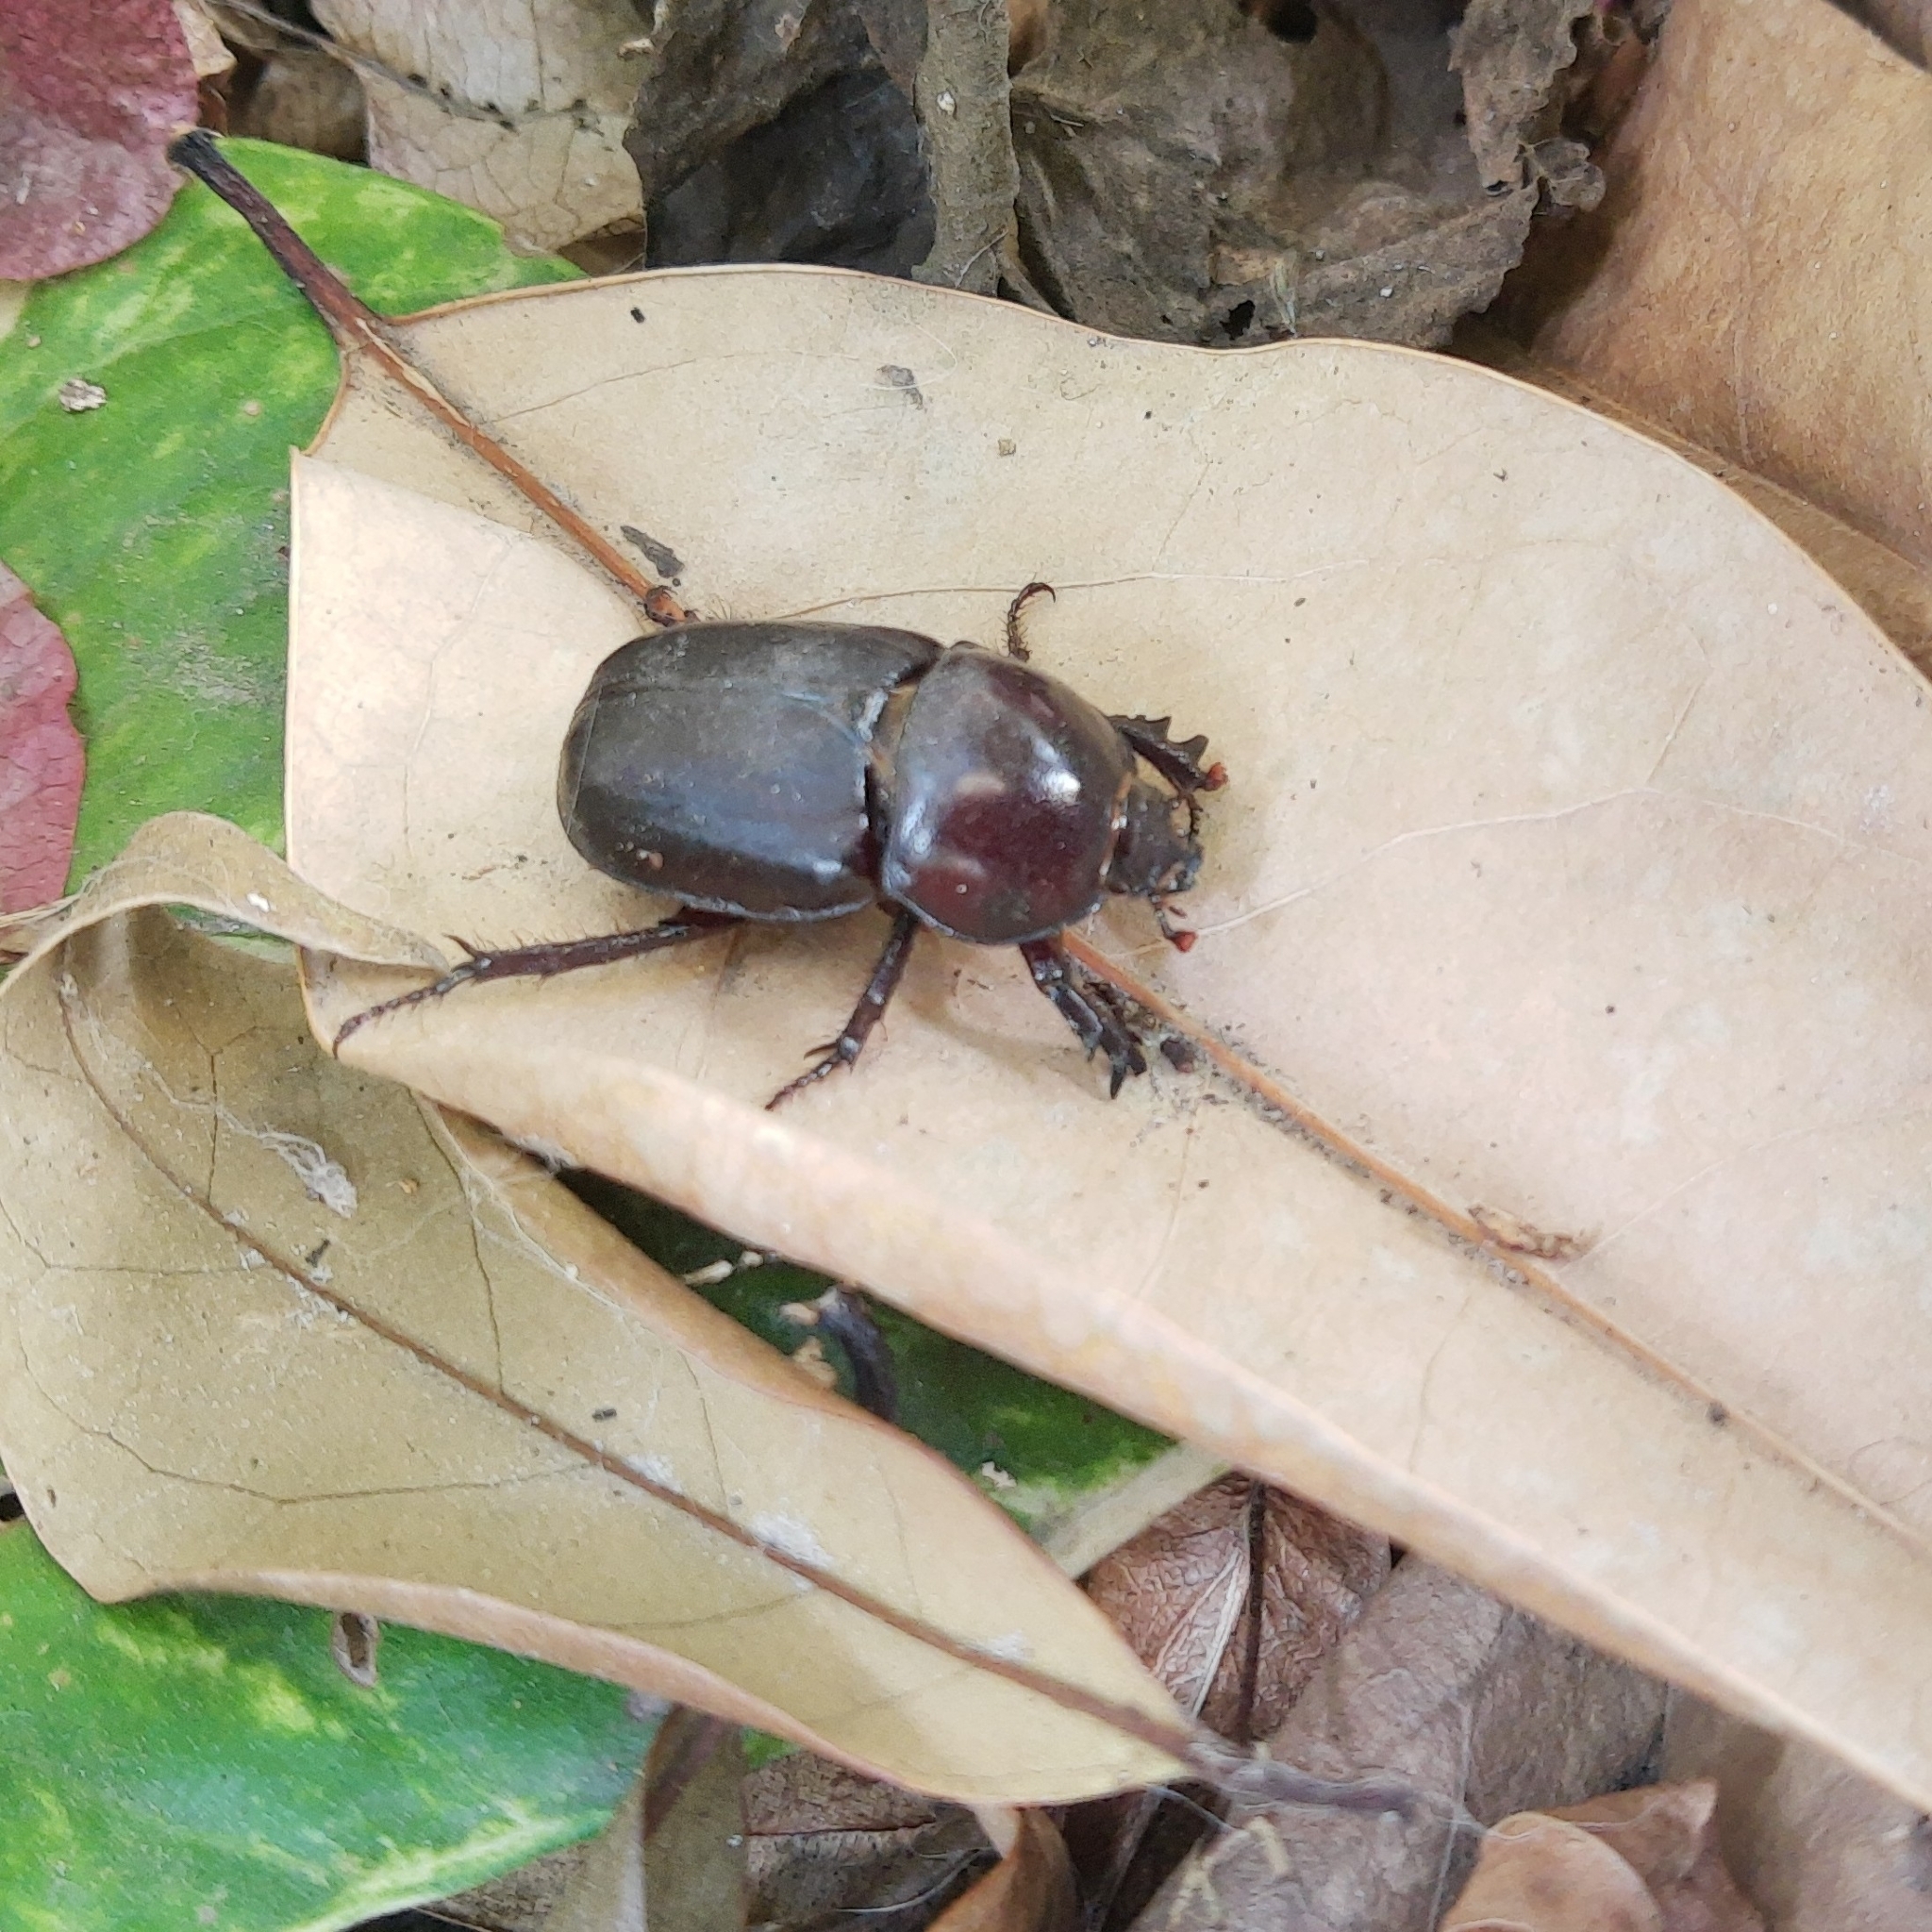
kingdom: Animalia
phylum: Arthropoda
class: Insecta
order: Coleoptera
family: Scarabaeidae
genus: Diloboderus
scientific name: Diloboderus abderus
